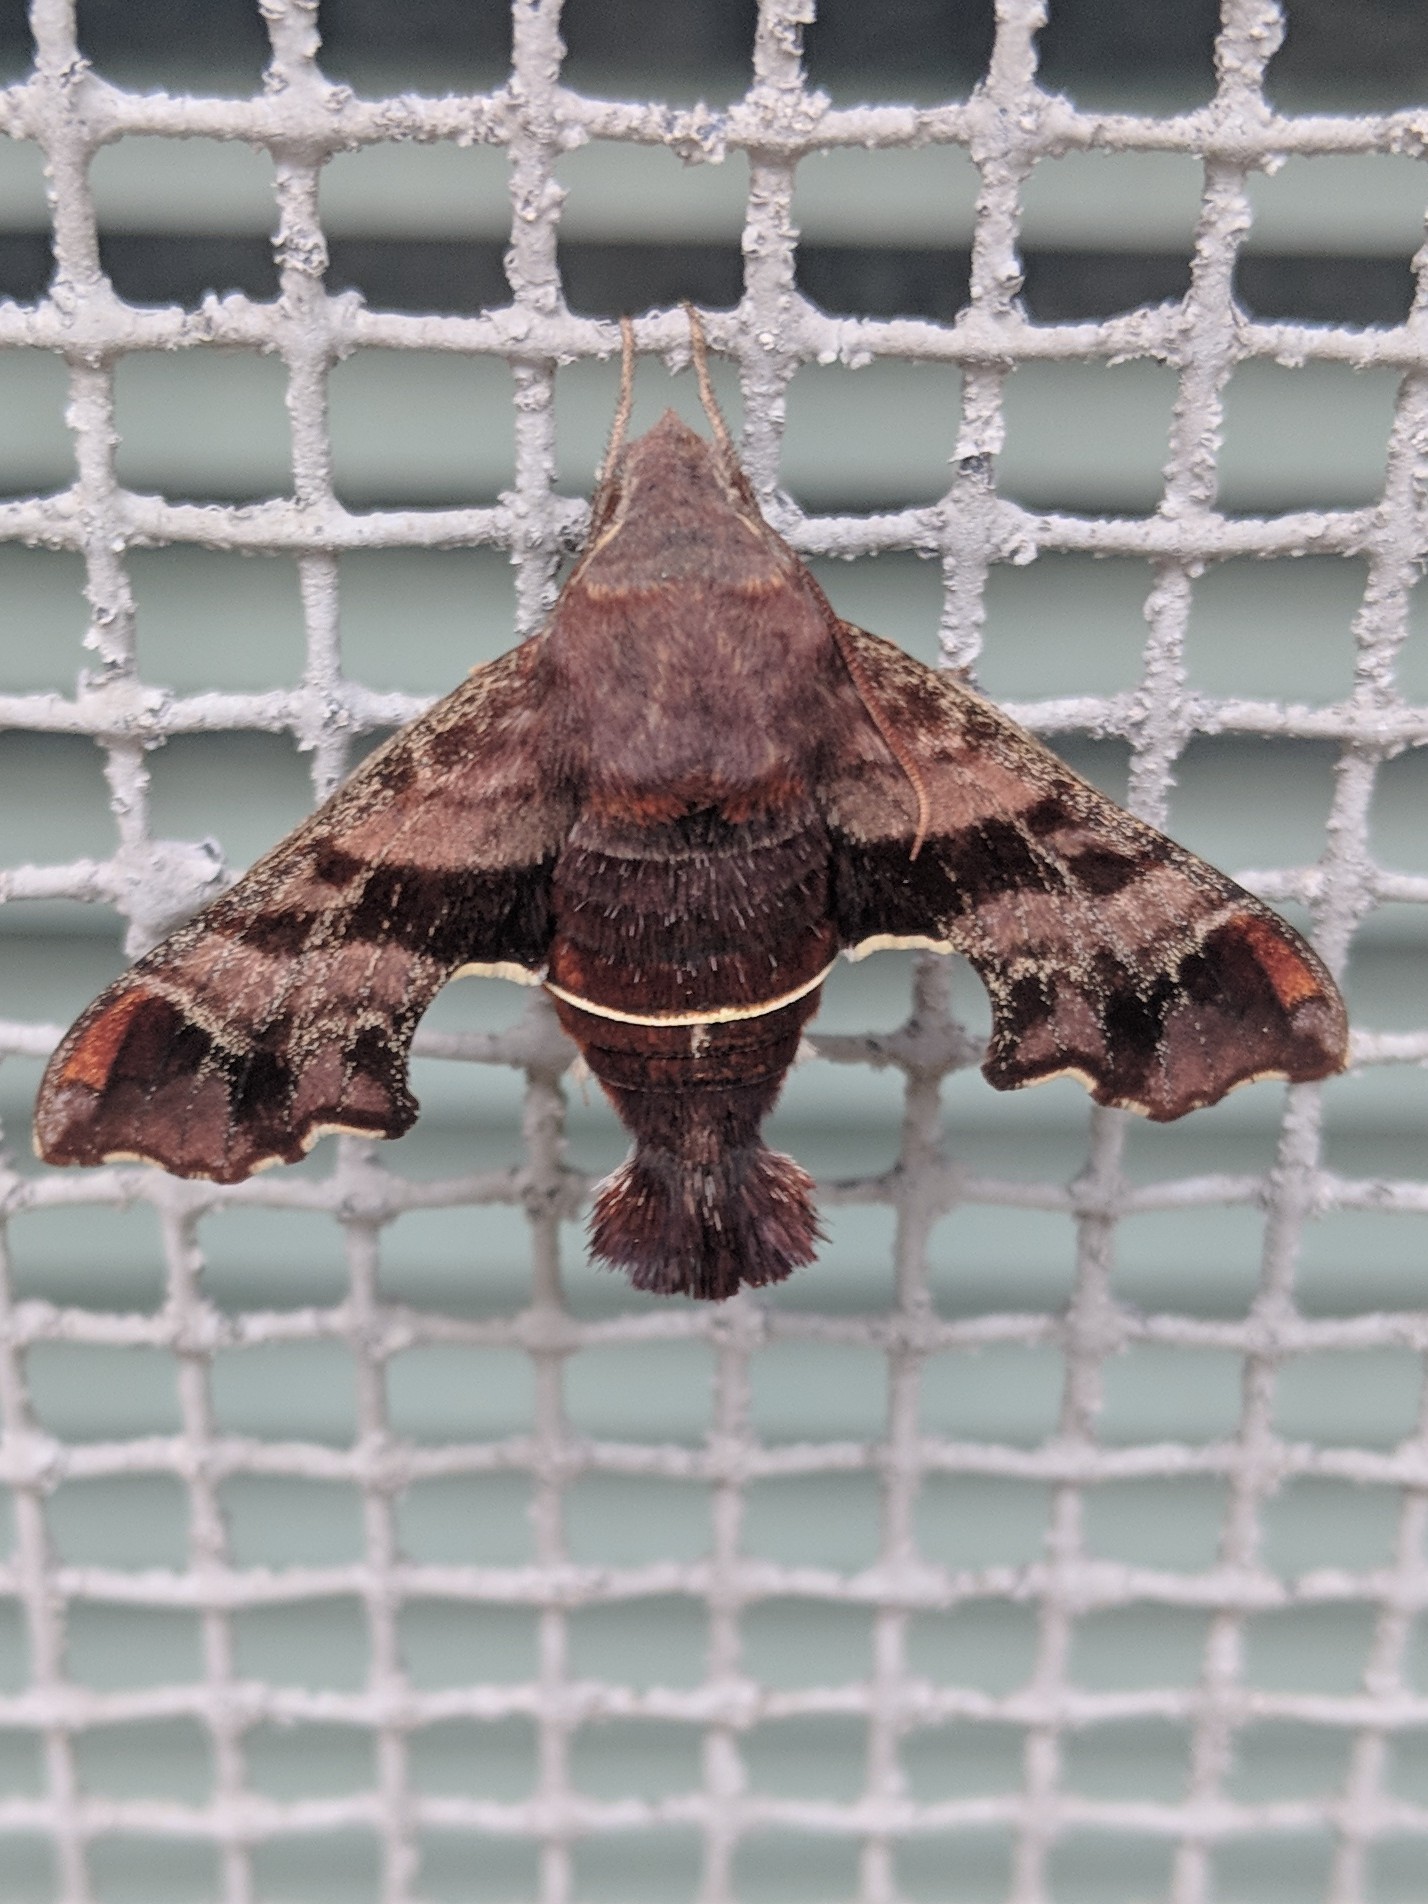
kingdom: Animalia
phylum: Arthropoda
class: Insecta
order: Lepidoptera
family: Sphingidae
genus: Amphion
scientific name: Amphion floridensis
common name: Nessus sphinx
